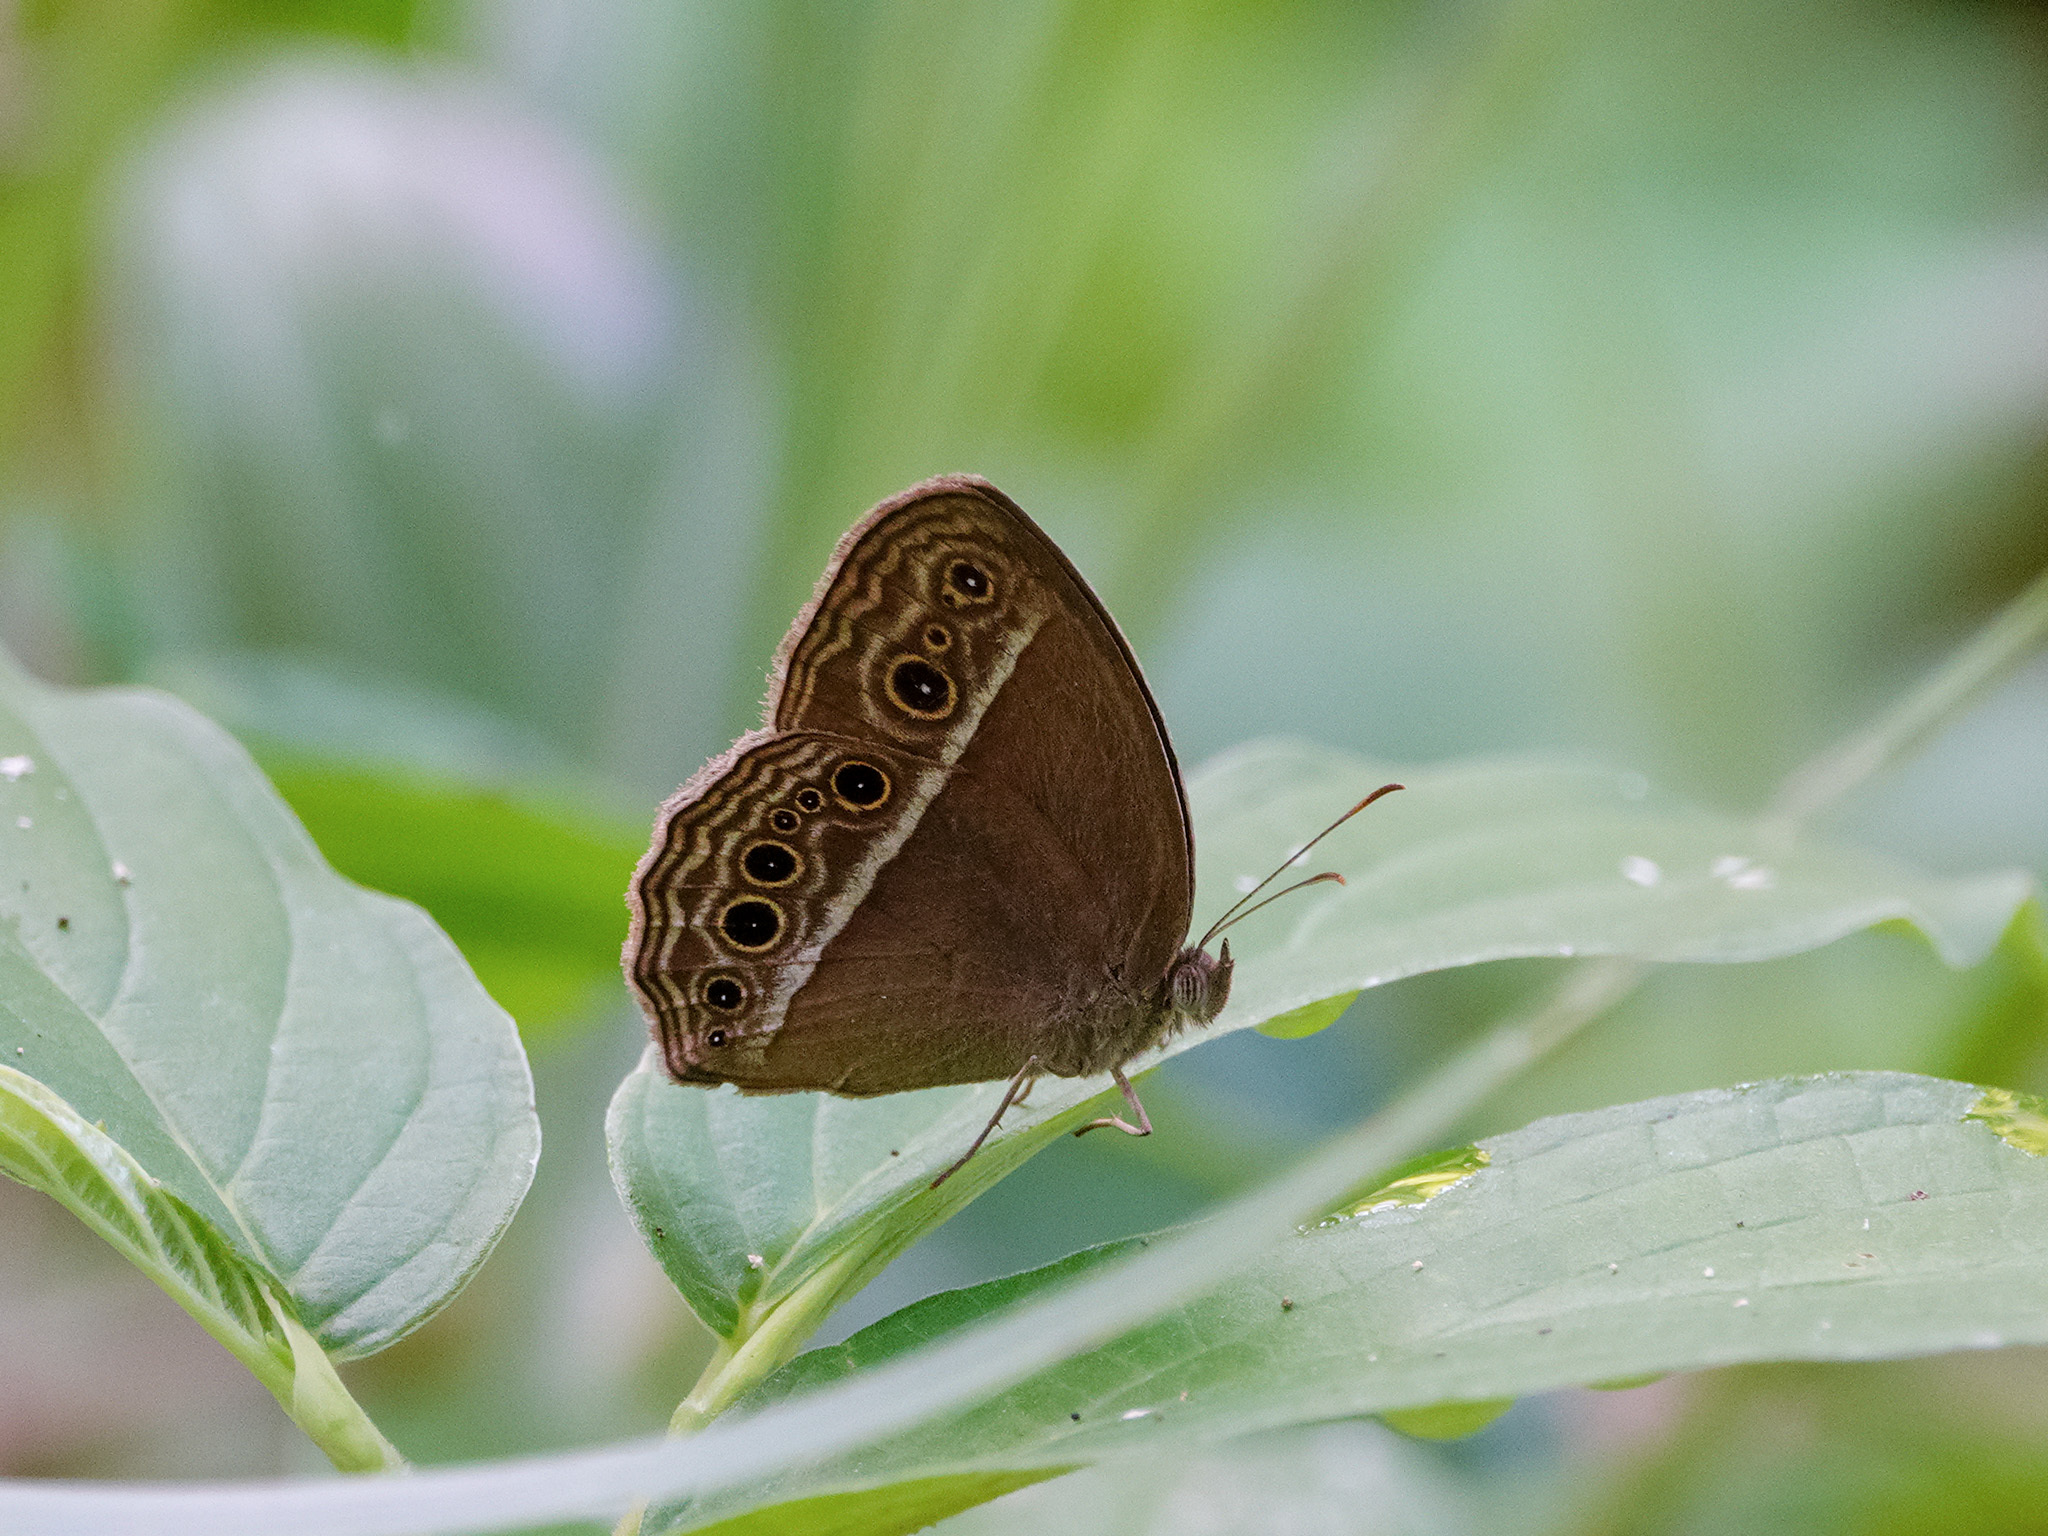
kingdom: Animalia
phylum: Arthropoda
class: Insecta
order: Lepidoptera
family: Nymphalidae
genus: Mycalesis
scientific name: Mycalesis mineus
